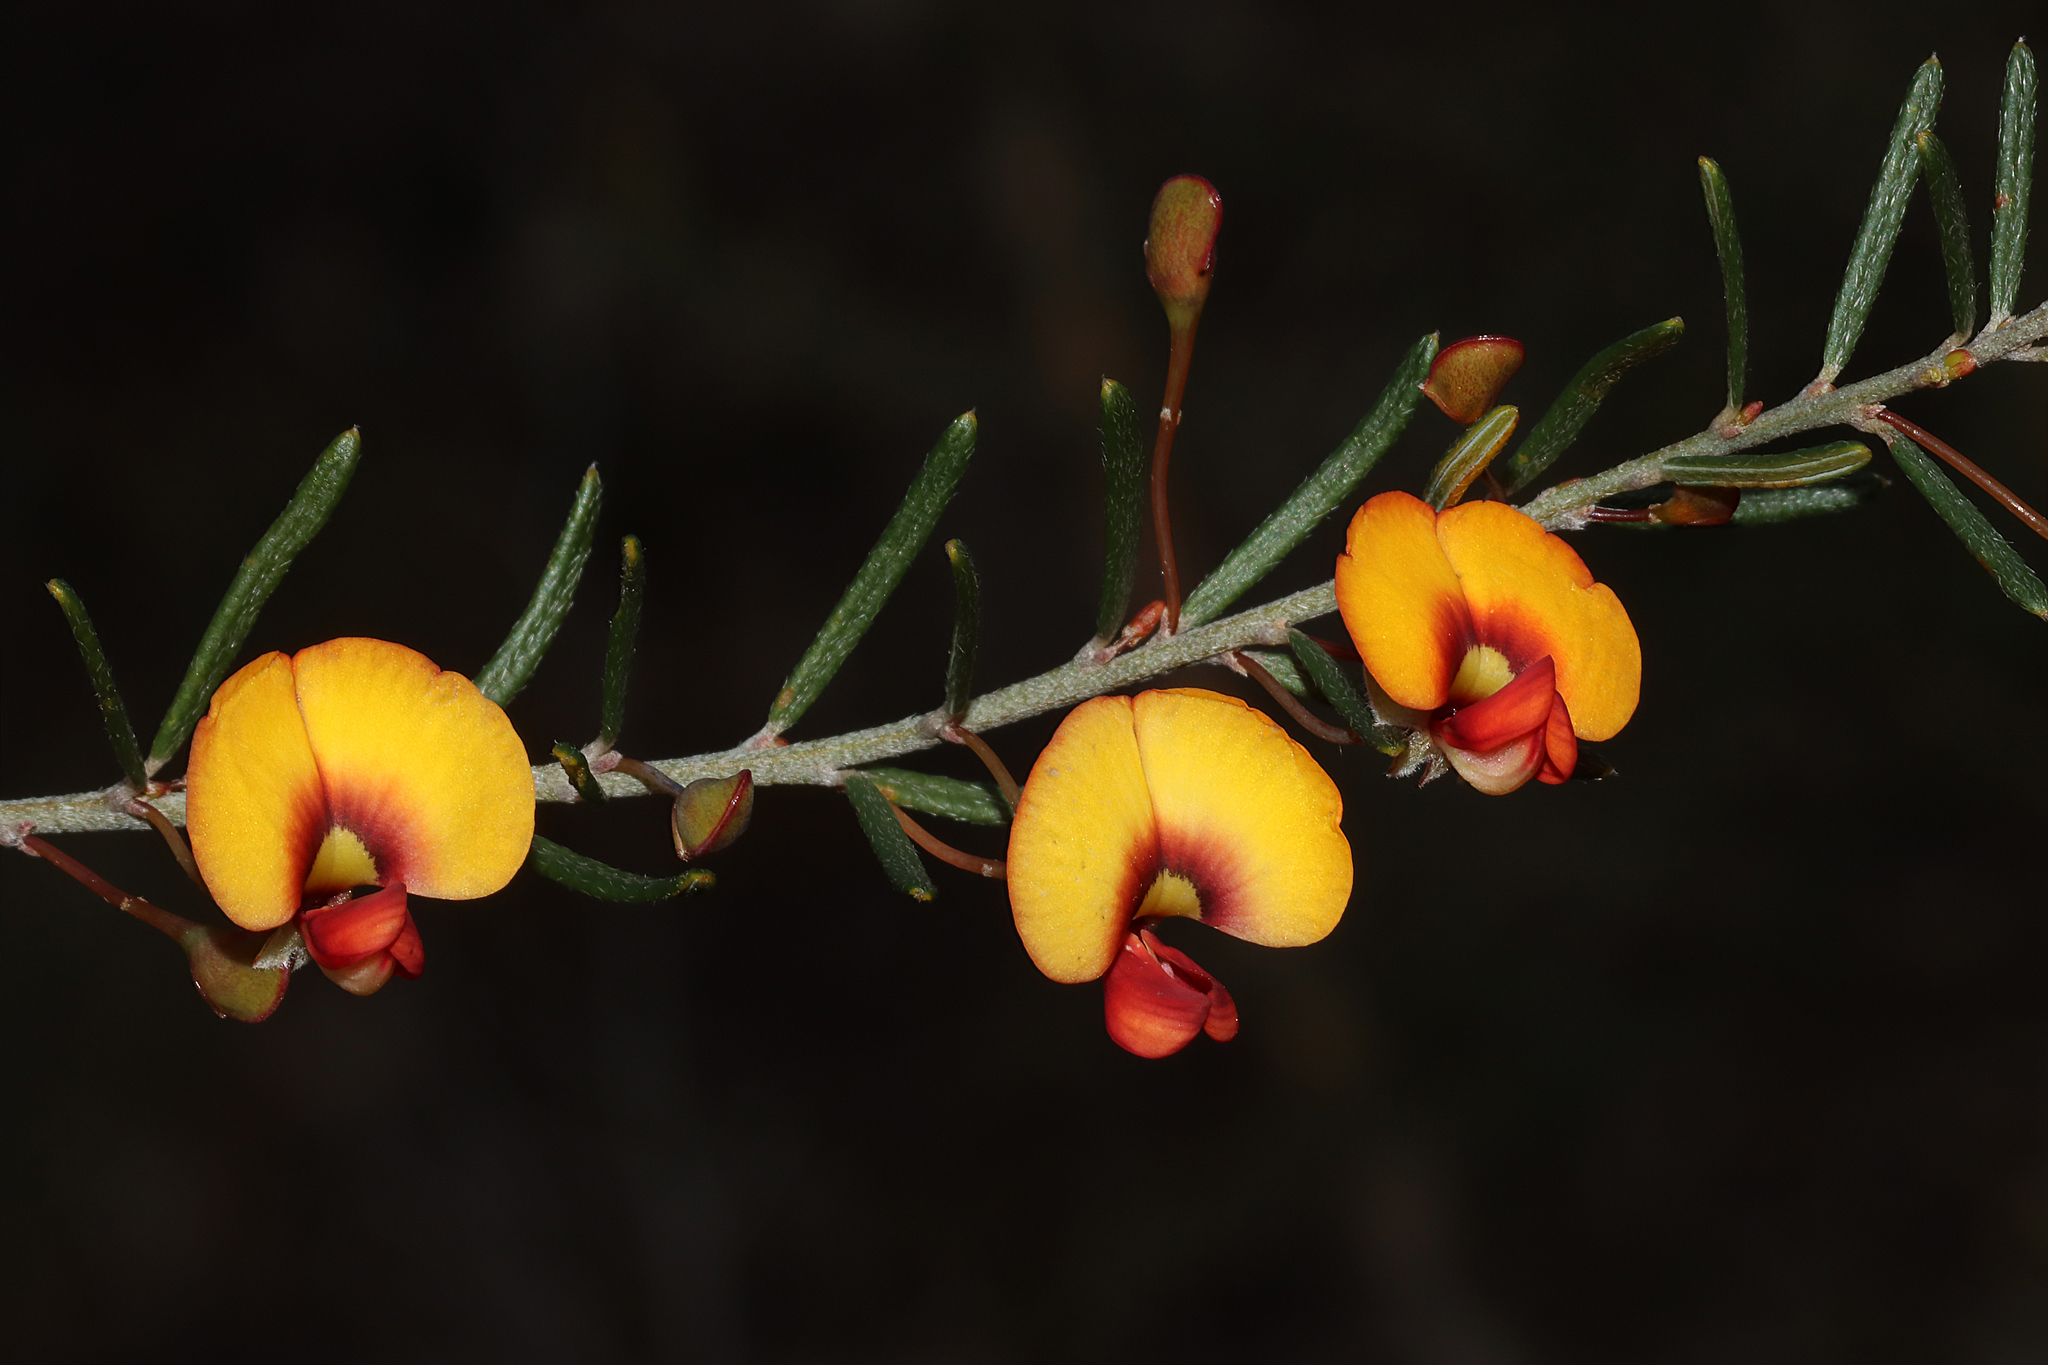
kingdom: Plantae
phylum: Tracheophyta
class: Magnoliopsida
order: Fabales
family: Fabaceae
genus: Euchilopsis
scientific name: Euchilopsis linearis
